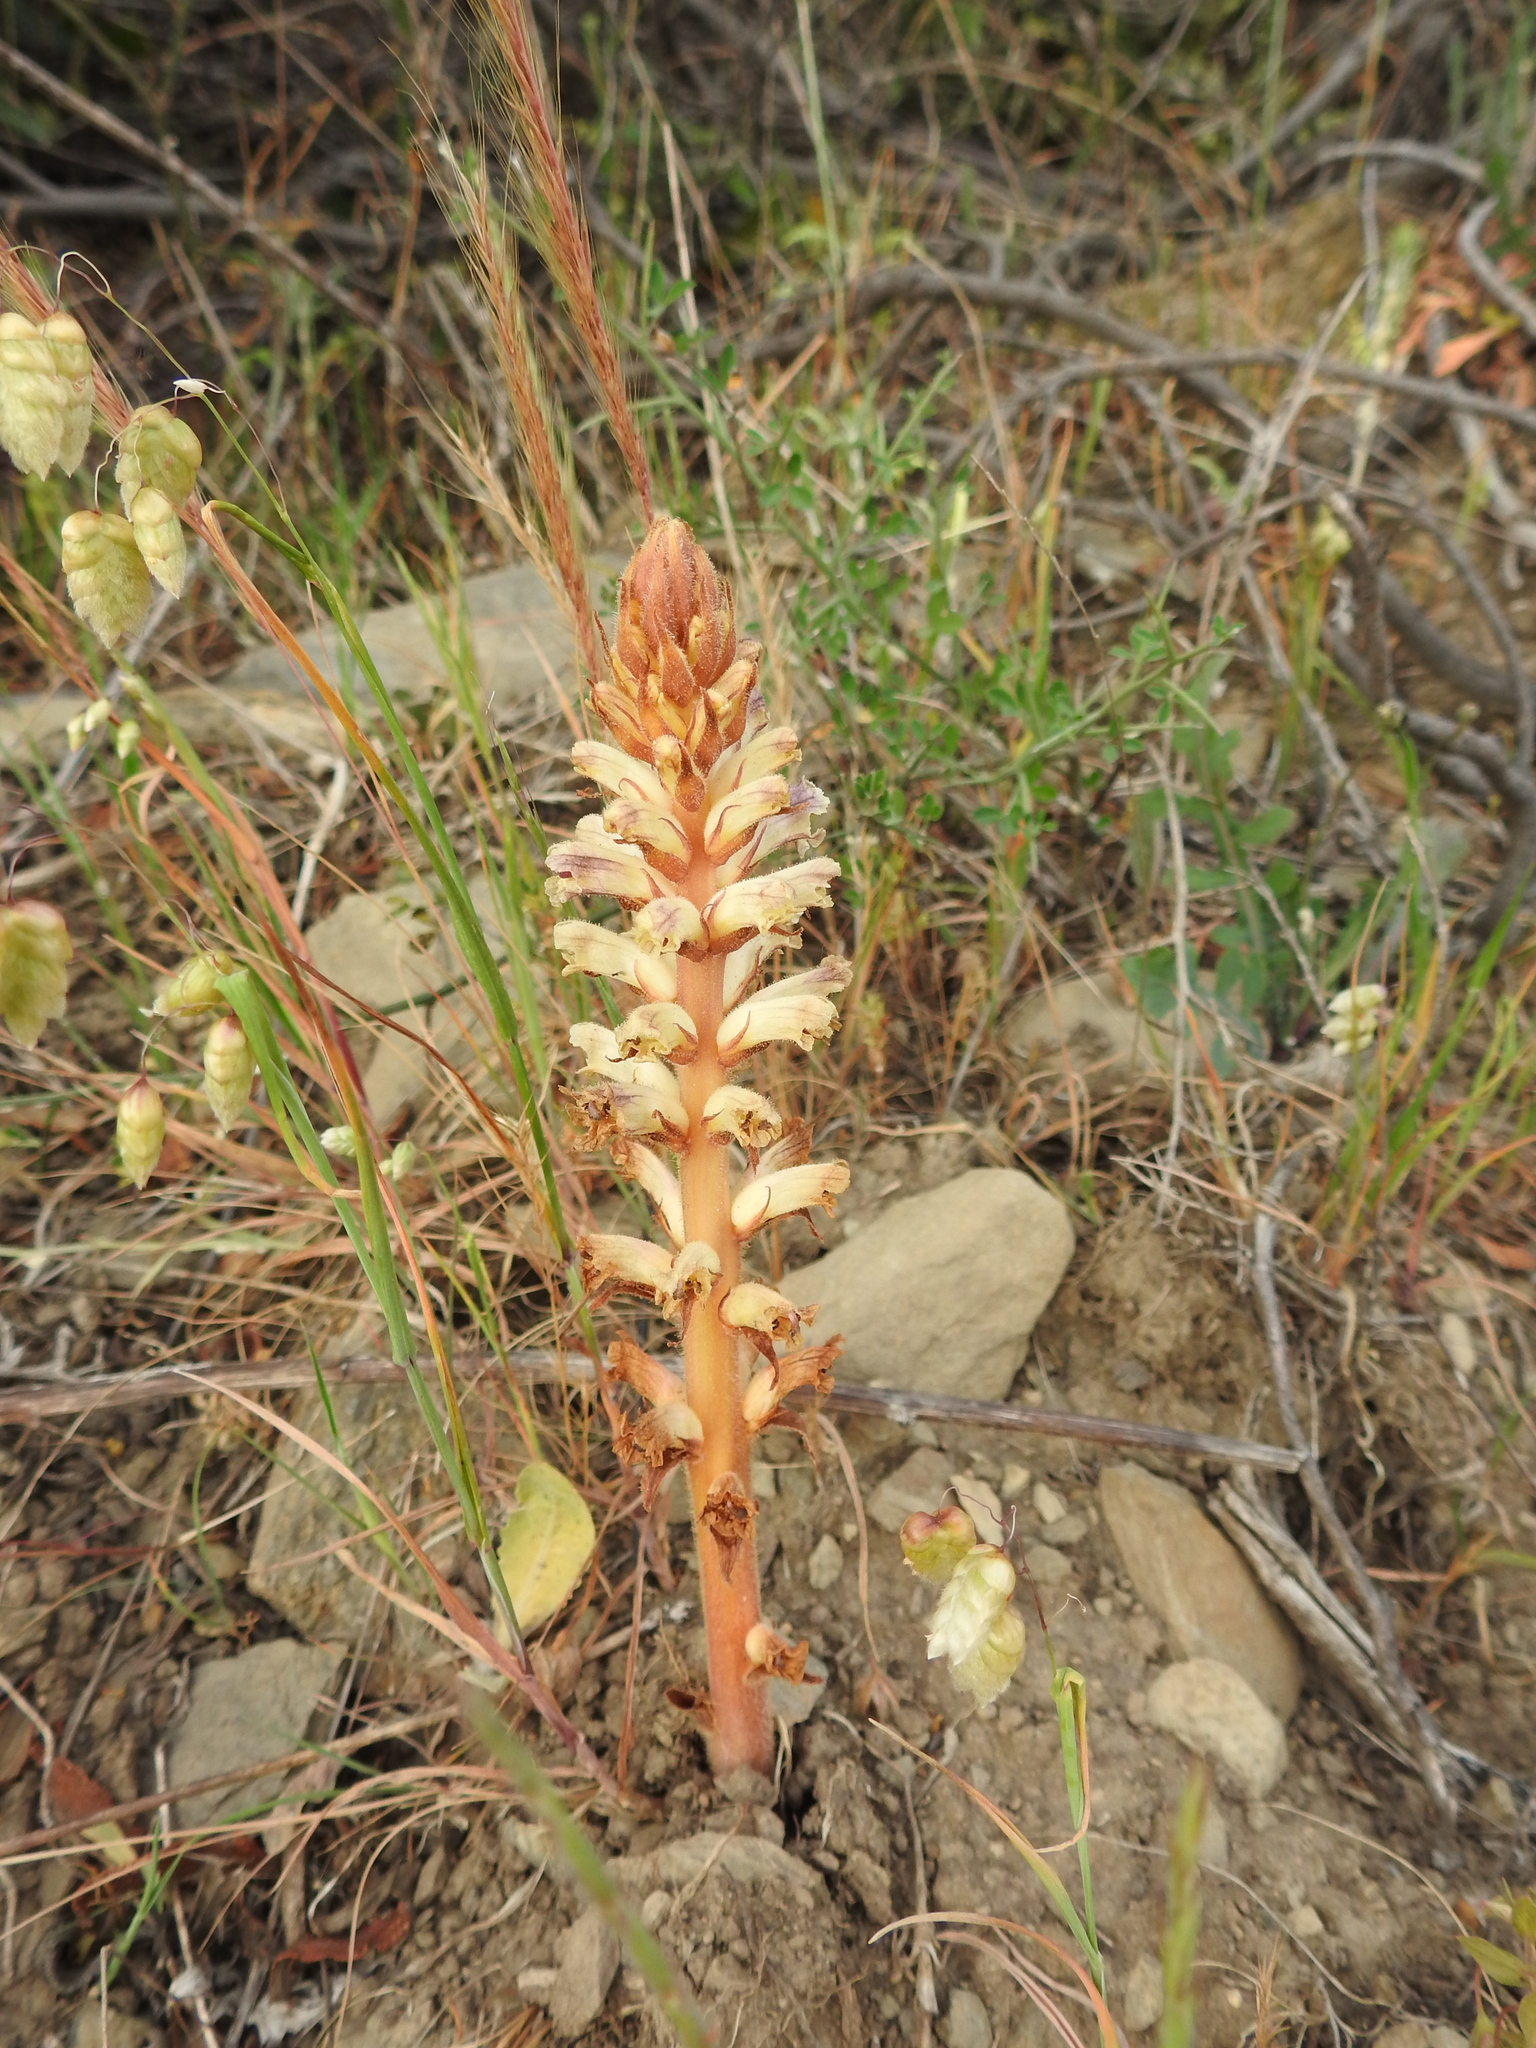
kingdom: Plantae
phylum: Tracheophyta
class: Magnoliopsida
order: Lamiales
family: Orobanchaceae
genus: Orobanche
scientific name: Orobanche minor
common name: Common broomrape
